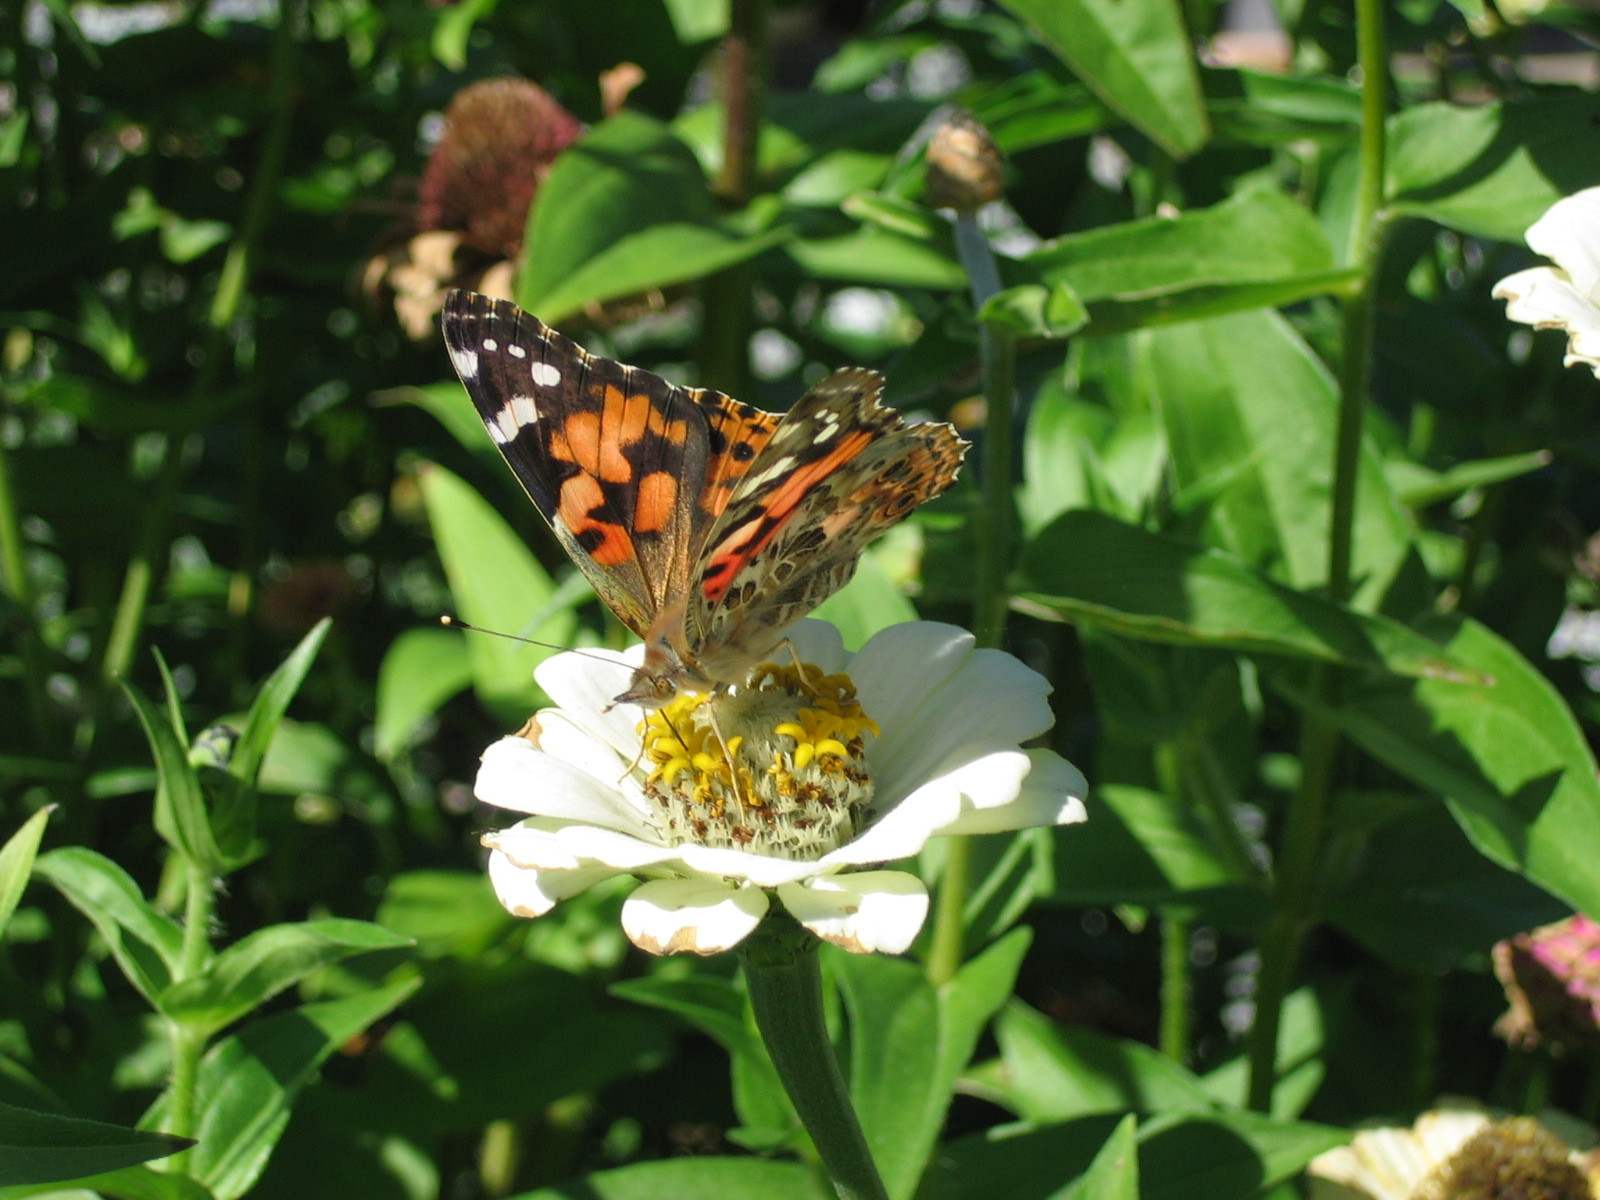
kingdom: Animalia
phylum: Arthropoda
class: Insecta
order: Lepidoptera
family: Nymphalidae
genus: Vanessa
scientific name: Vanessa cardui
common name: Painted lady
